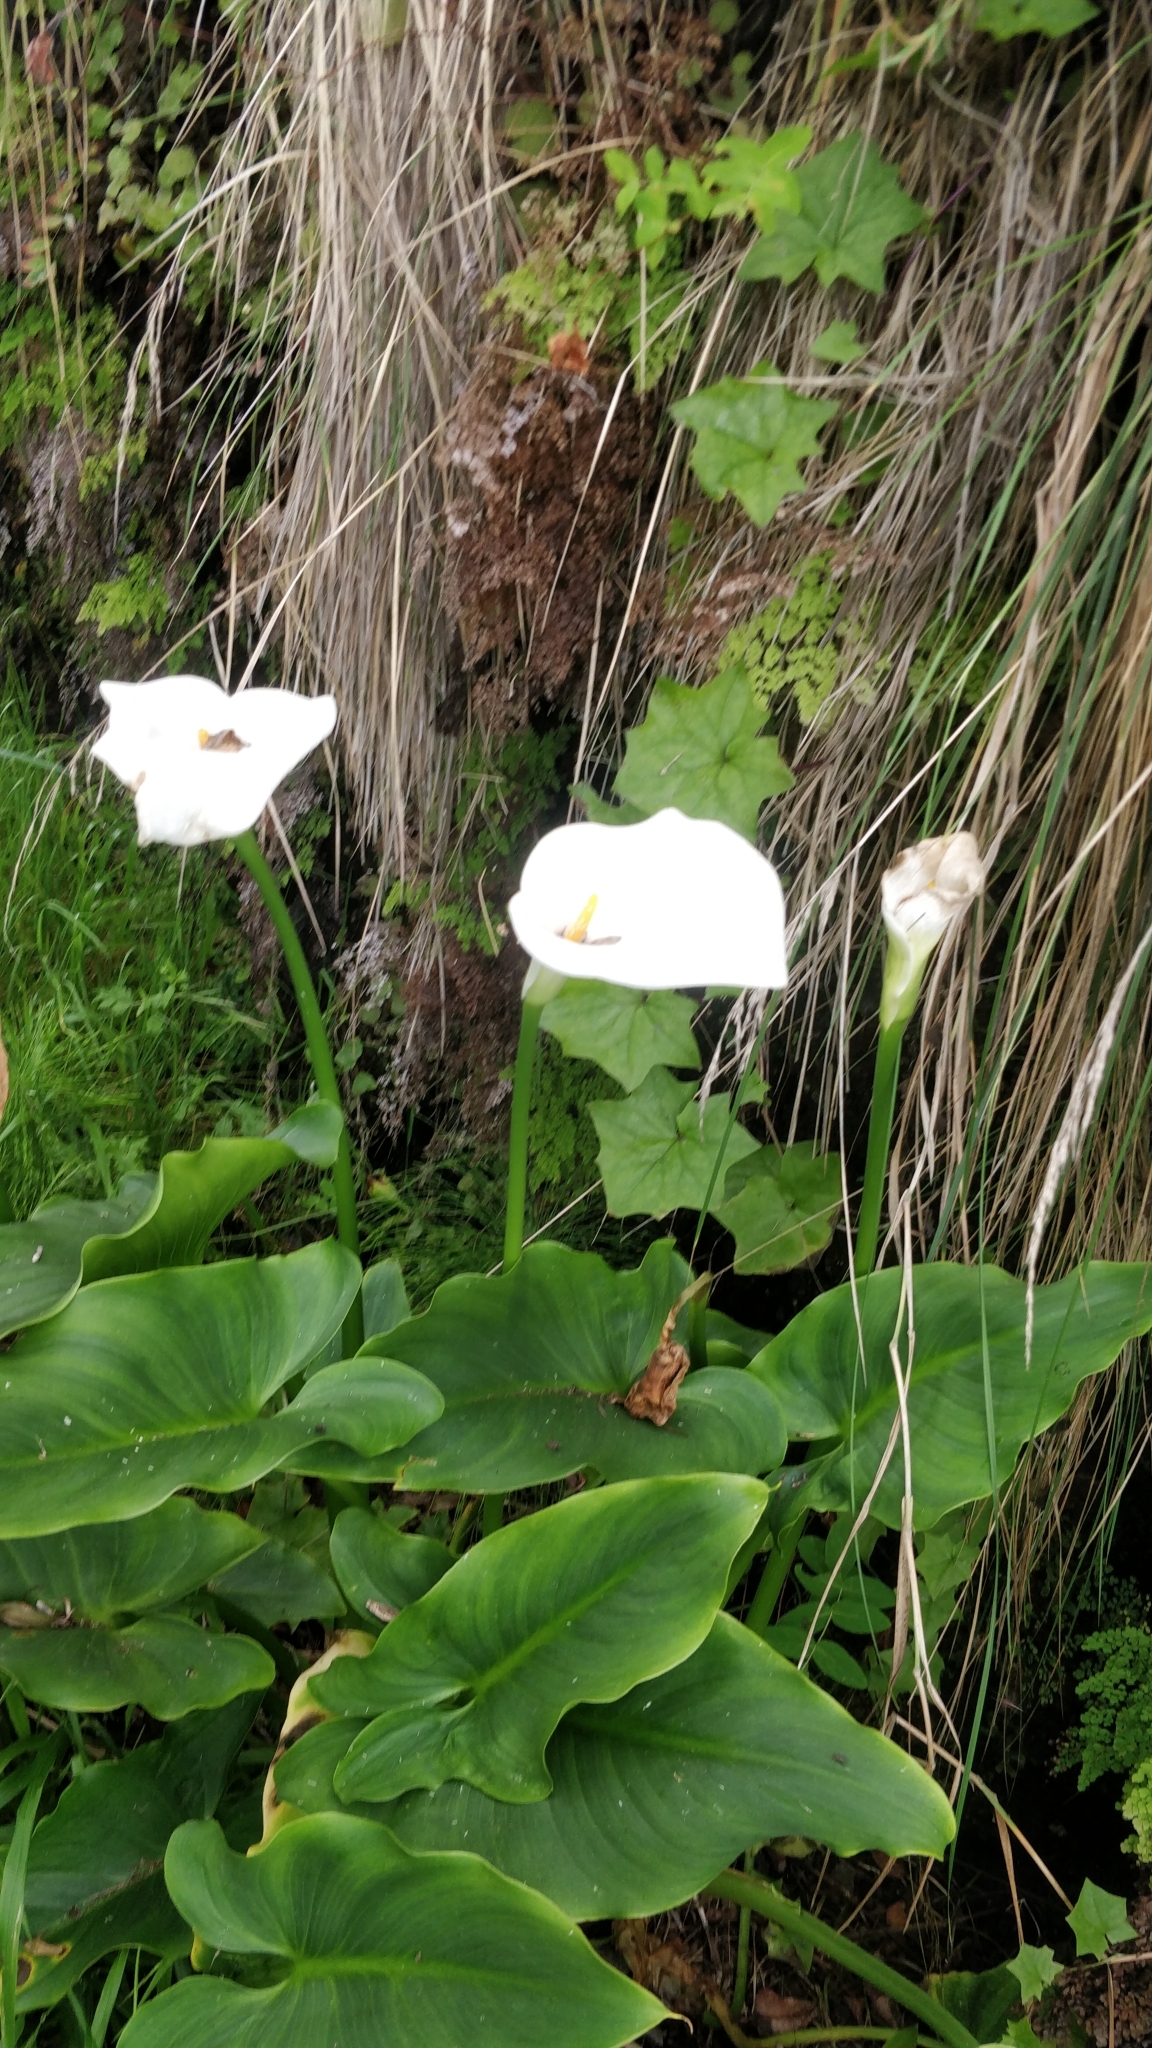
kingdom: Plantae
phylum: Tracheophyta
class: Liliopsida
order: Alismatales
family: Araceae
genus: Zantedeschia
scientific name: Zantedeschia aethiopica
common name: Altar-lily
